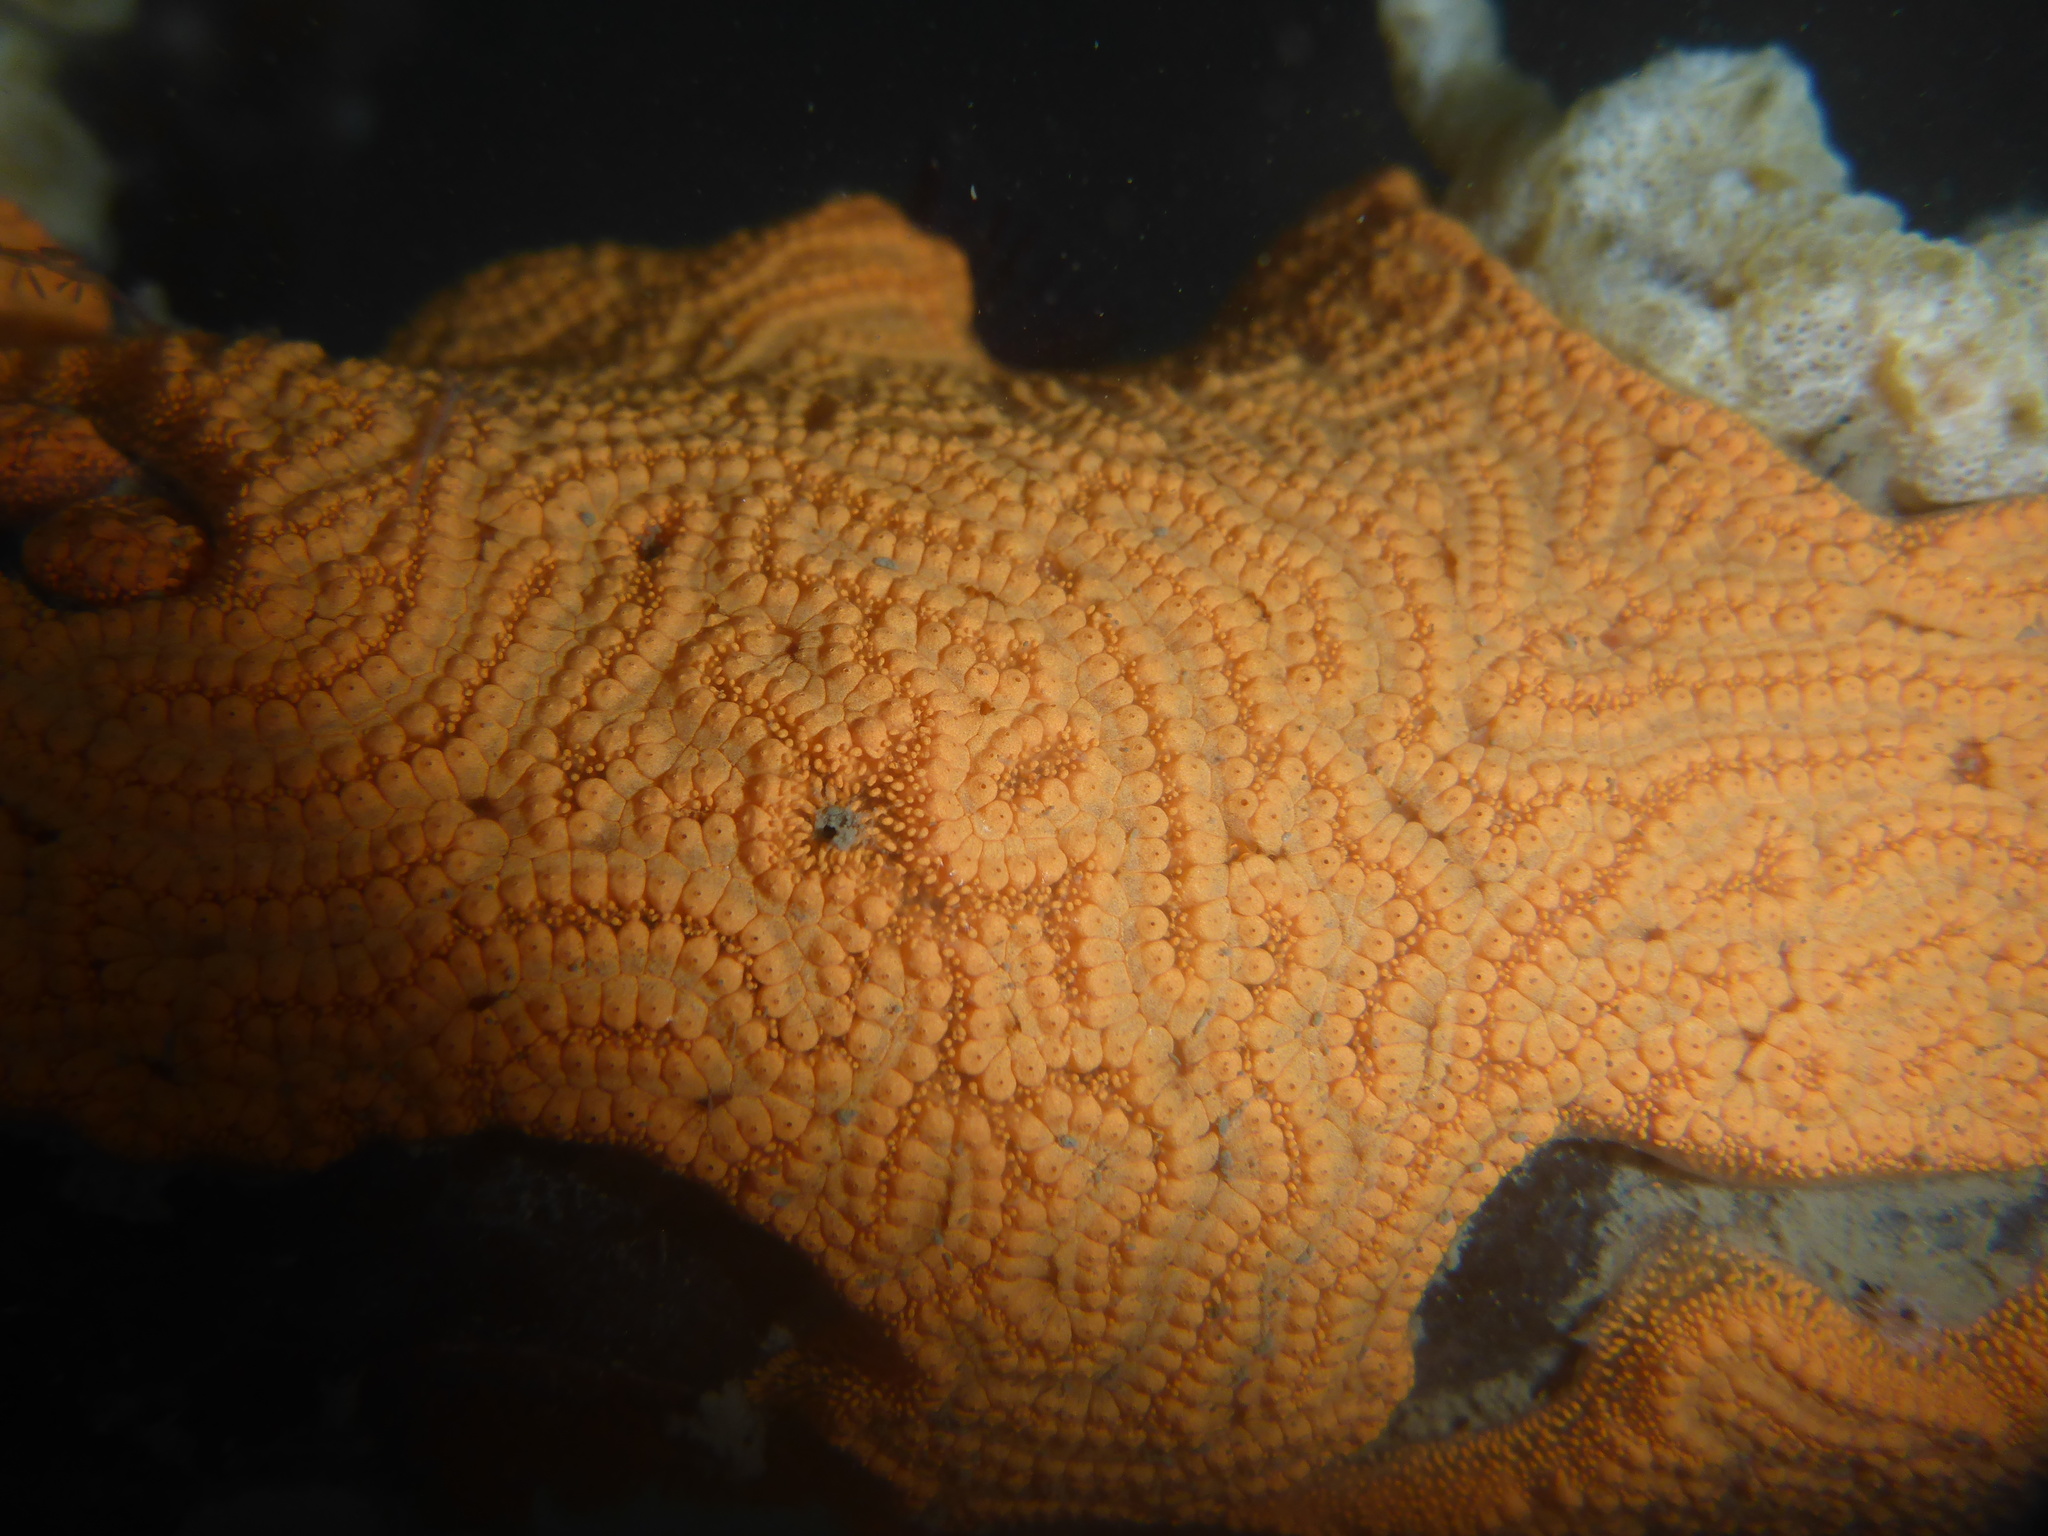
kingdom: Animalia
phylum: Chordata
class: Ascidiacea
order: Stolidobranchia
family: Styelidae
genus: Botrylloides
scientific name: Botrylloides violaceus
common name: Colonial sea squirt
